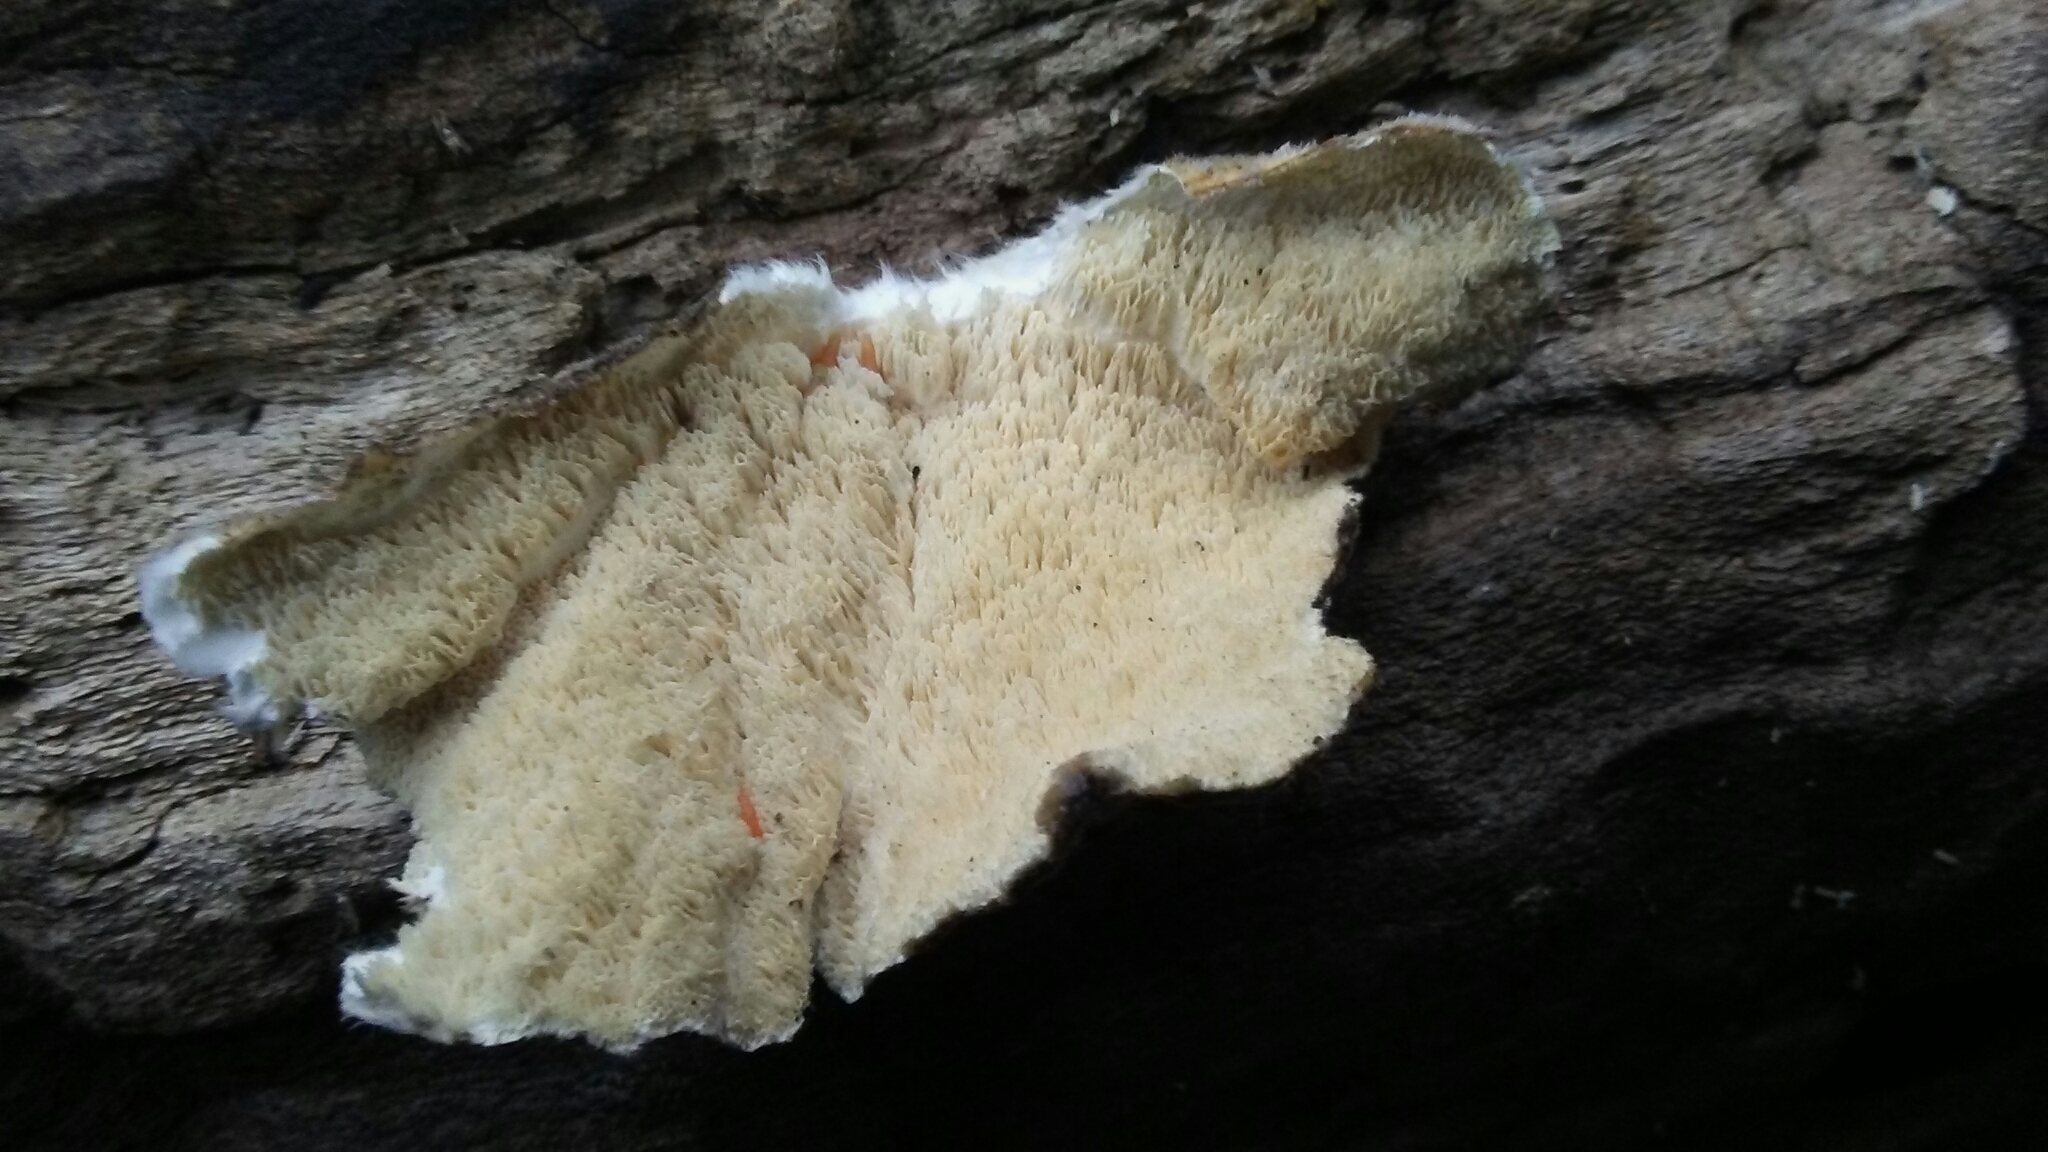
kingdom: Fungi
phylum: Basidiomycota
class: Agaricomycetes
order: Polyporales
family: Polyporaceae
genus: Trametes
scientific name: Trametes versicolor
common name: Turkeytail
